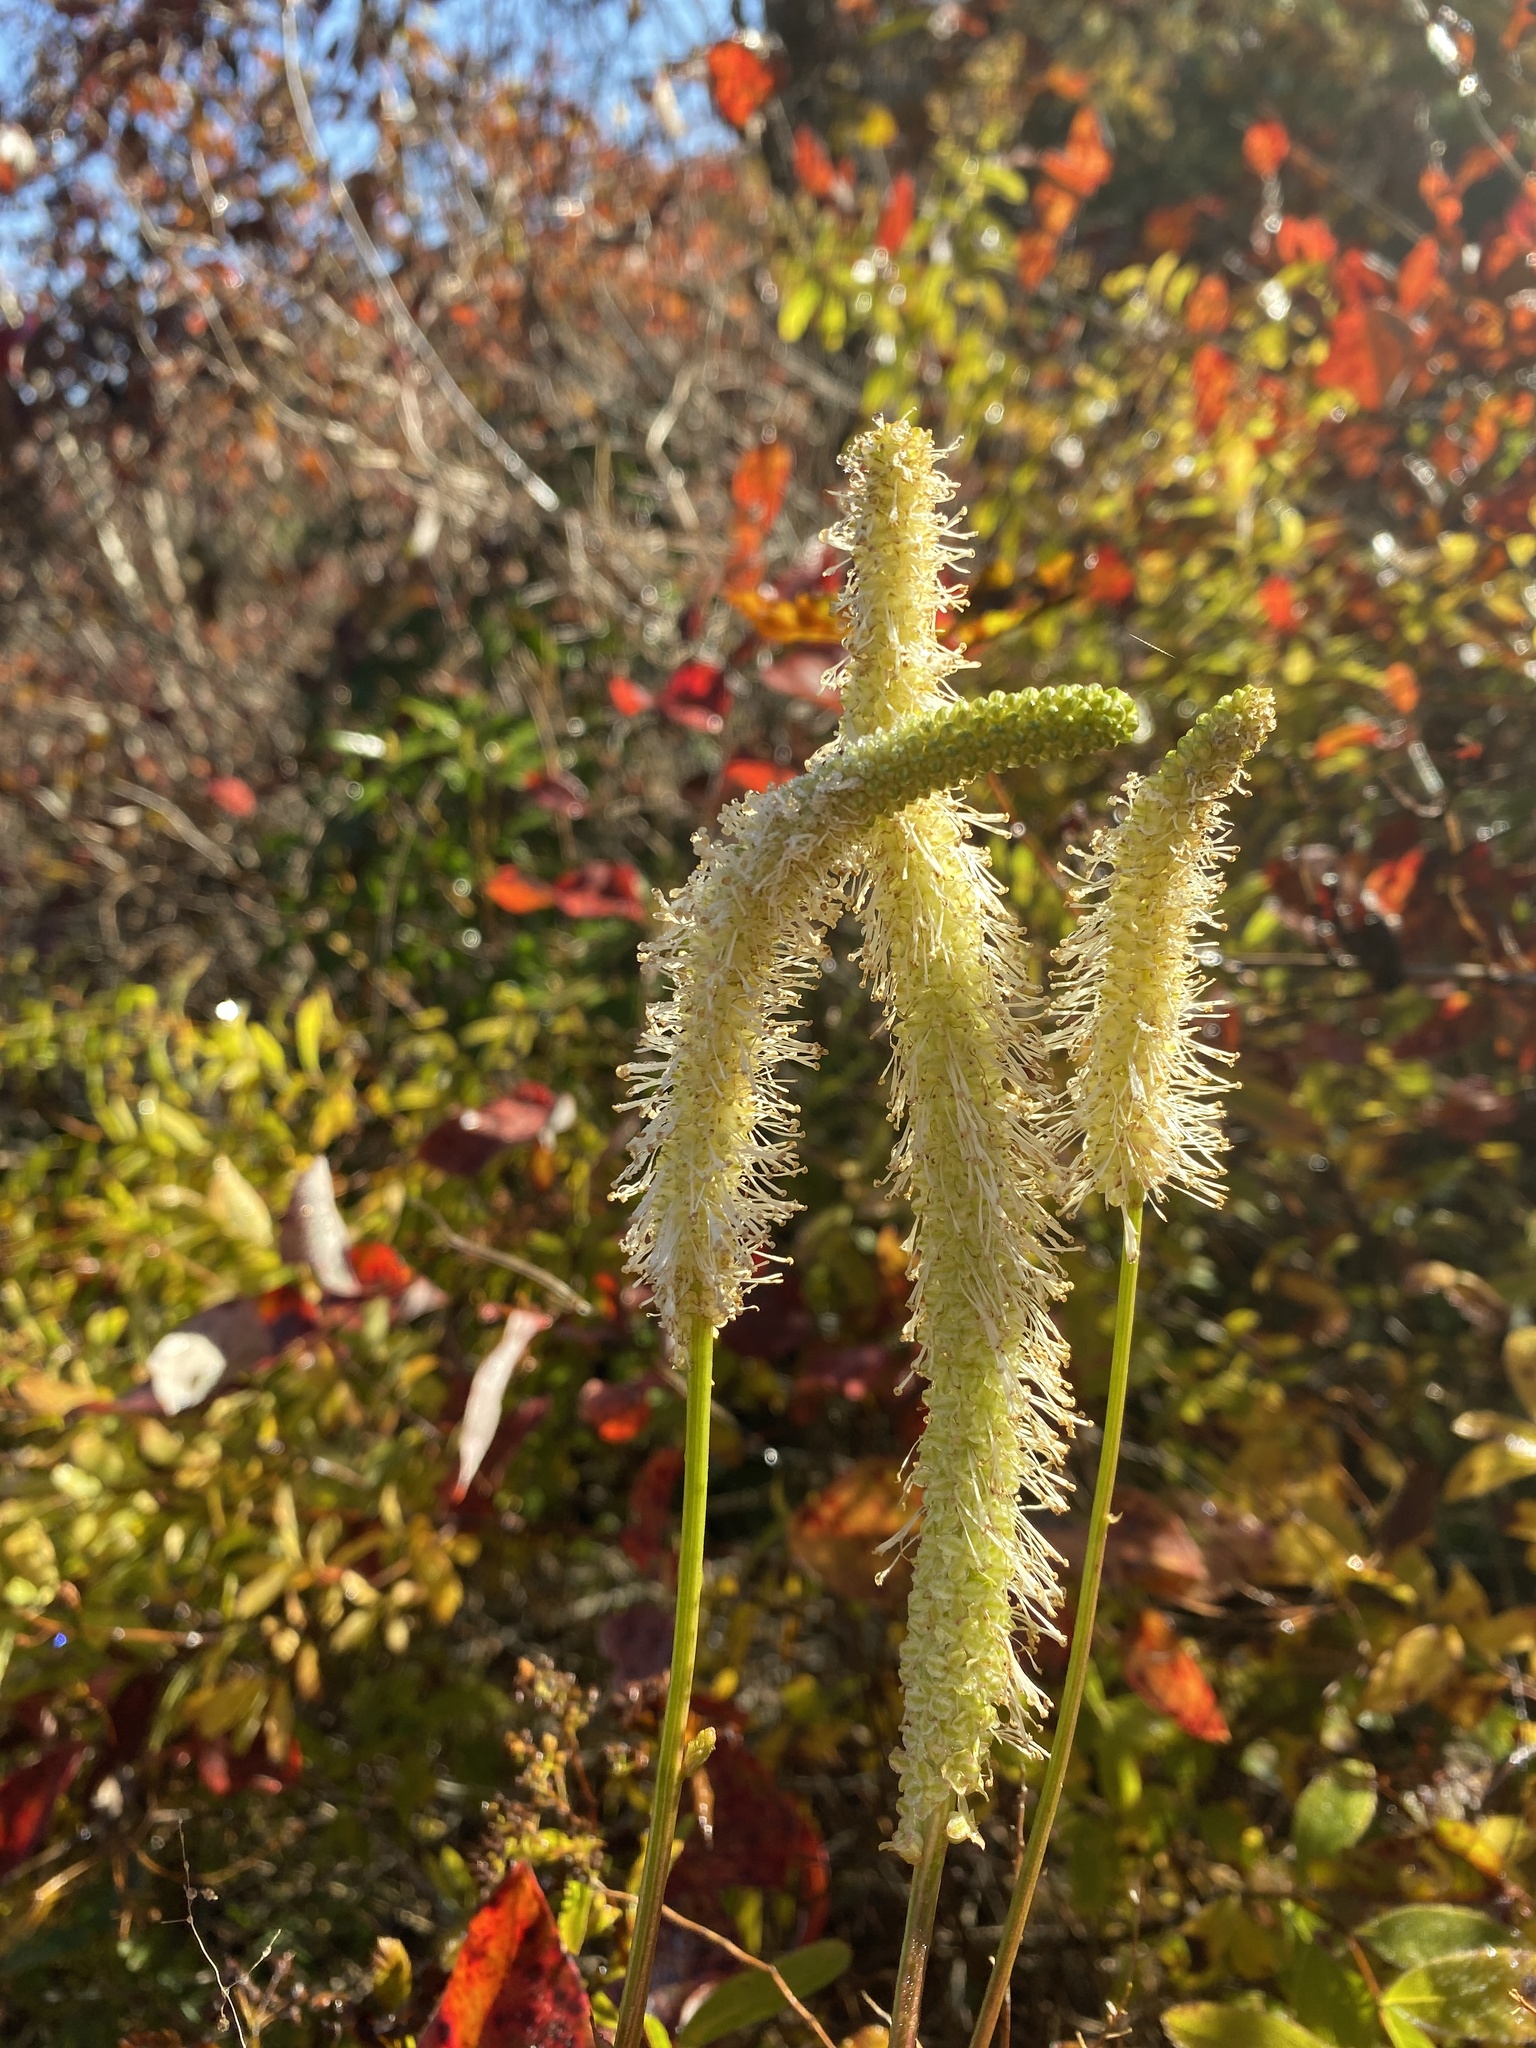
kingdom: Plantae
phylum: Tracheophyta
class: Magnoliopsida
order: Rosales
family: Rosaceae
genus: Sanguisorba
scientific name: Sanguisorba canadensis
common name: White burnet
